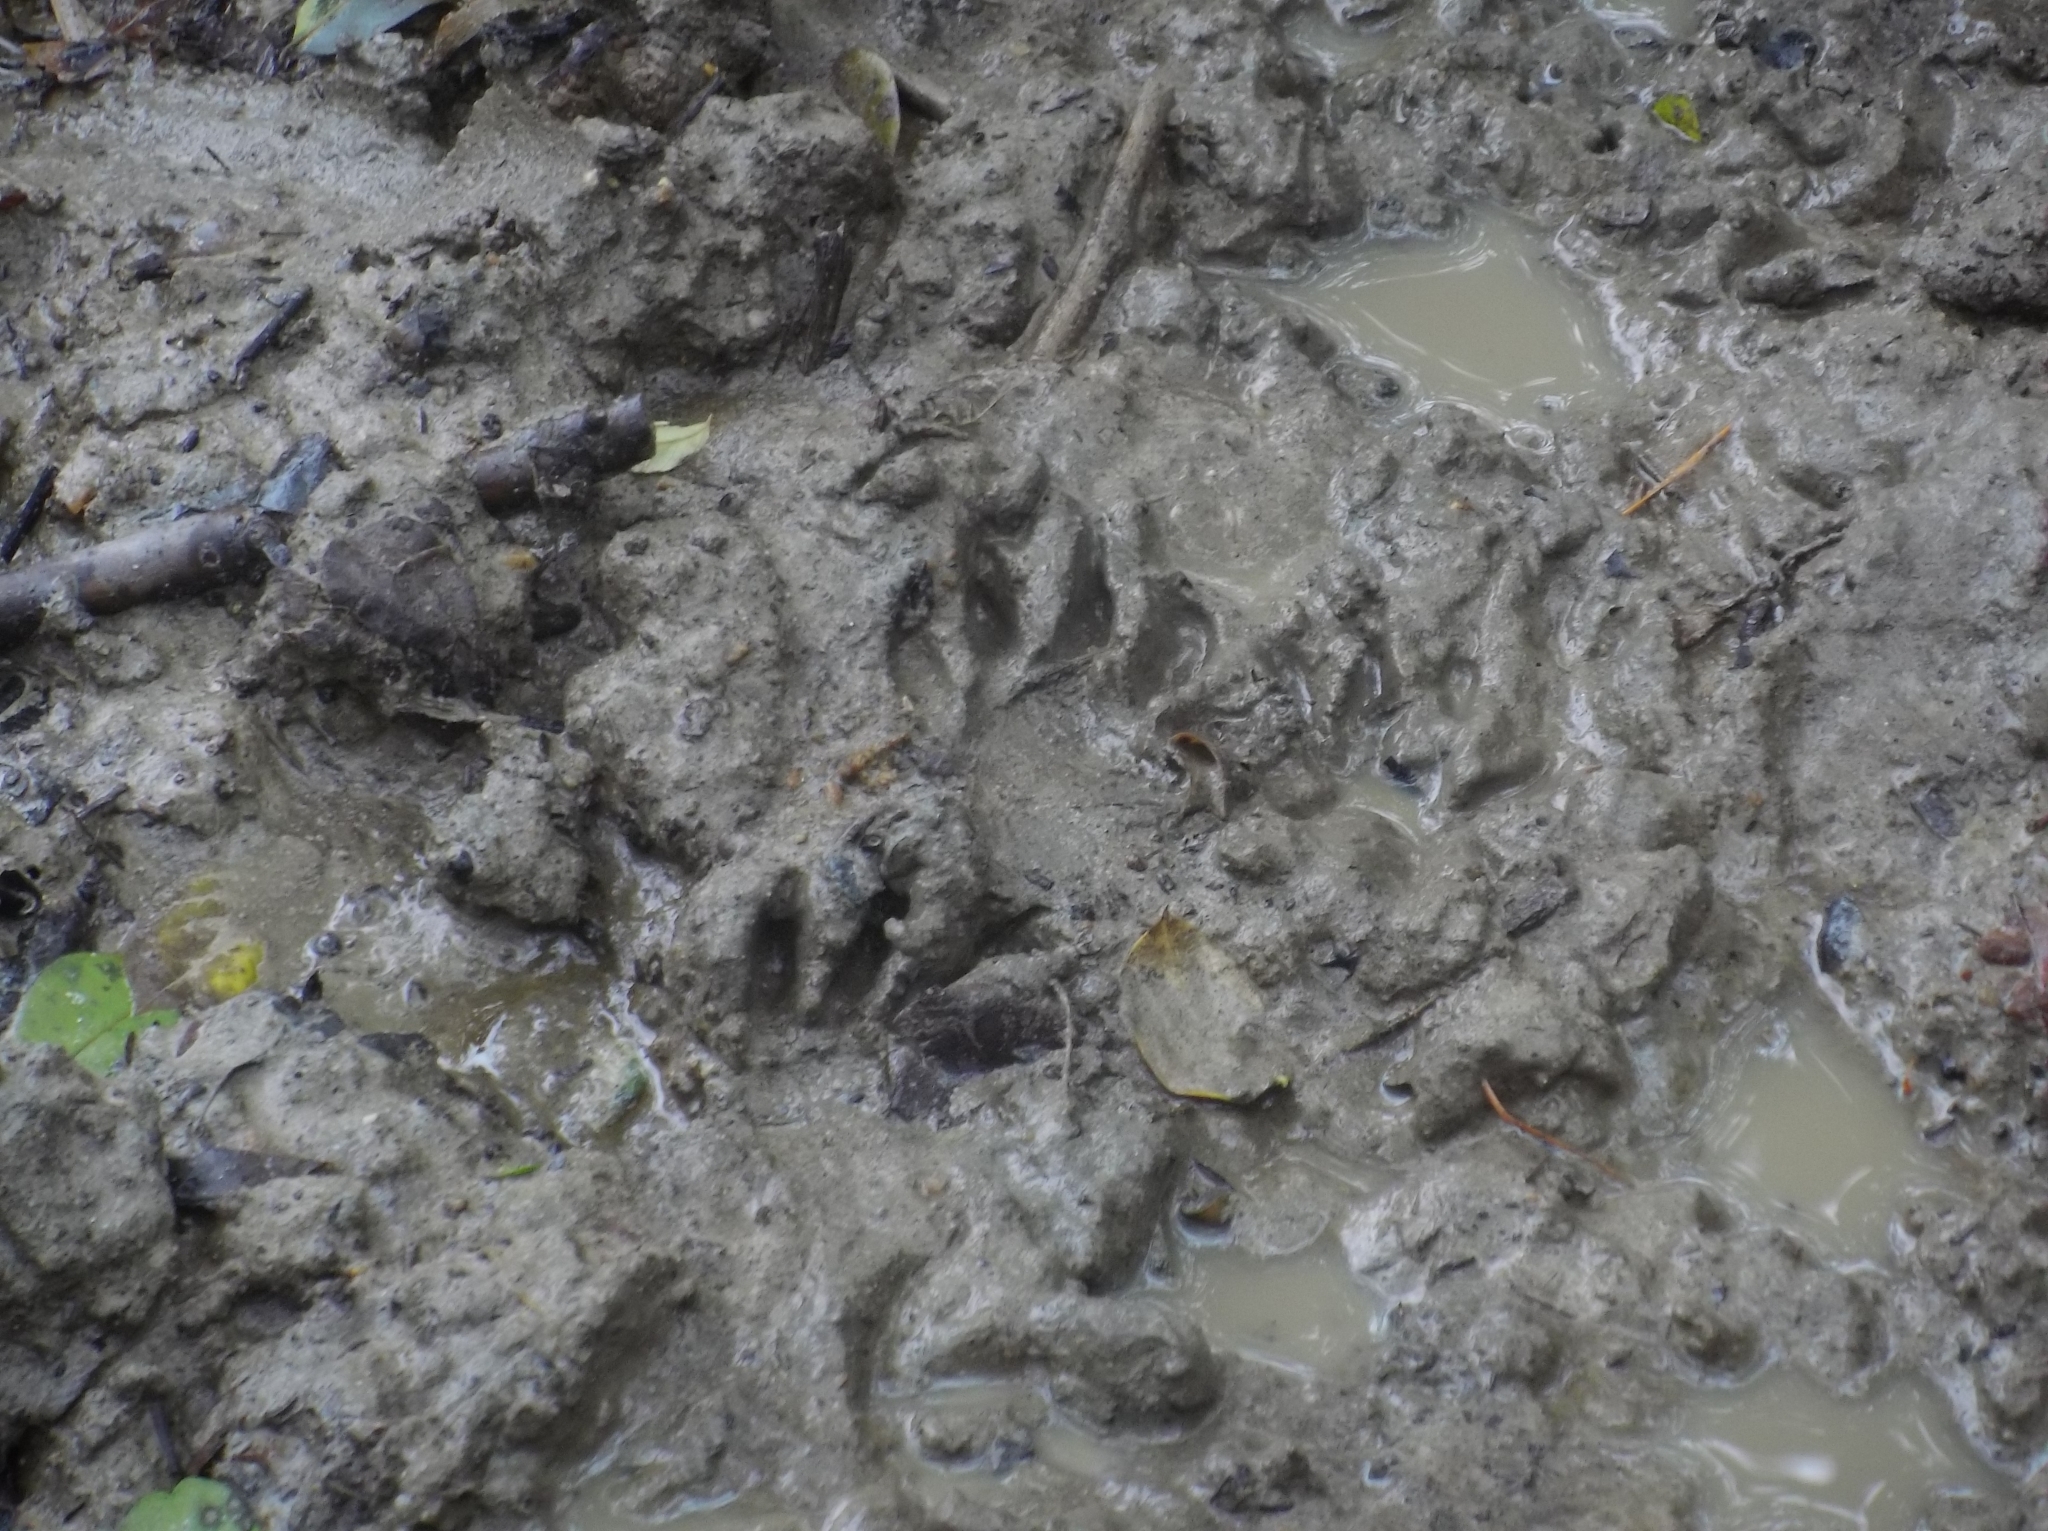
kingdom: Animalia
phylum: Chordata
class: Mammalia
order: Carnivora
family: Procyonidae
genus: Procyon
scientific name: Procyon lotor
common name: Raccoon
